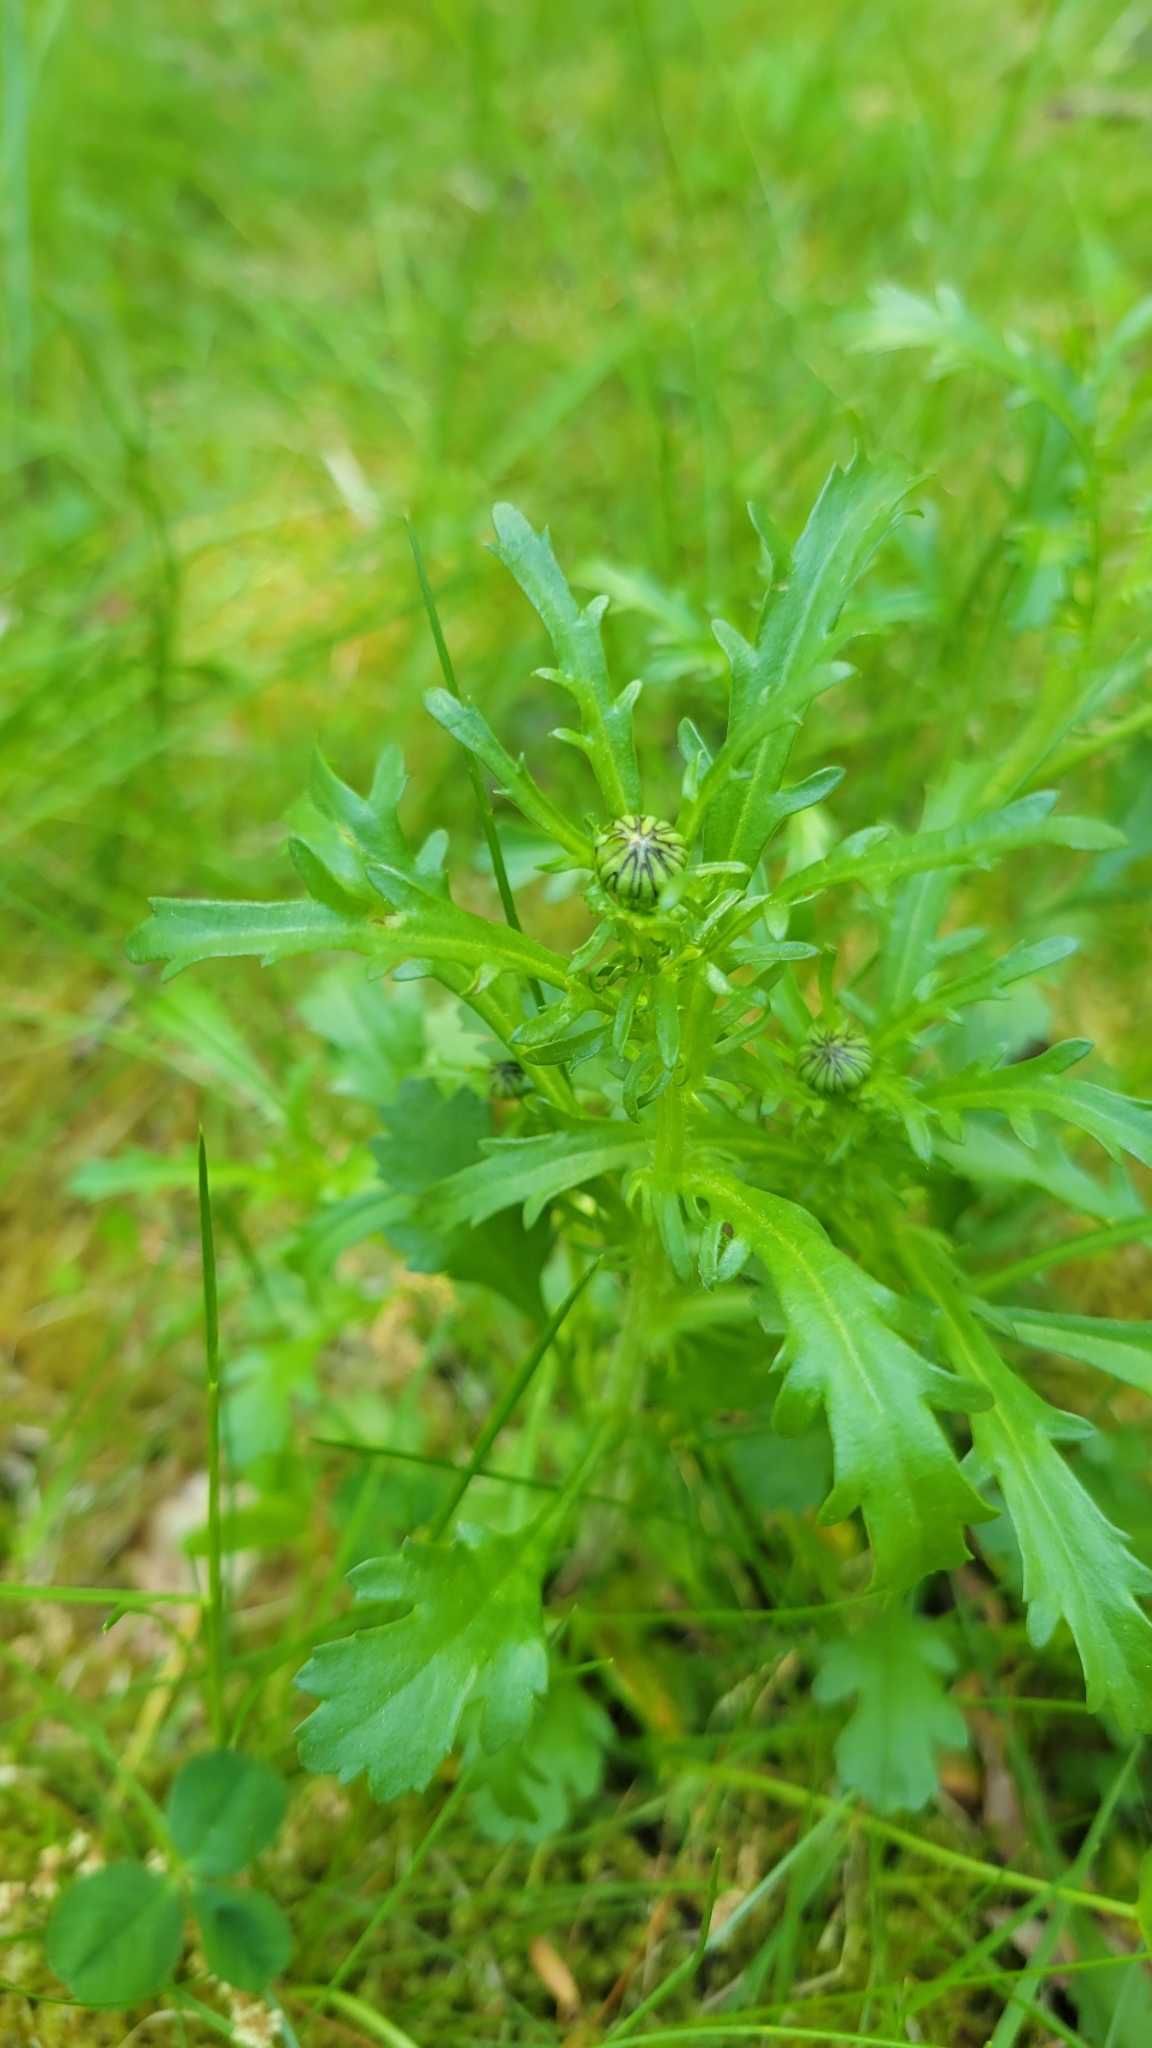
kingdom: Plantae
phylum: Tracheophyta
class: Magnoliopsida
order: Asterales
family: Asteraceae
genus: Leucanthemum
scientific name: Leucanthemum vulgare
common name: Oxeye daisy
